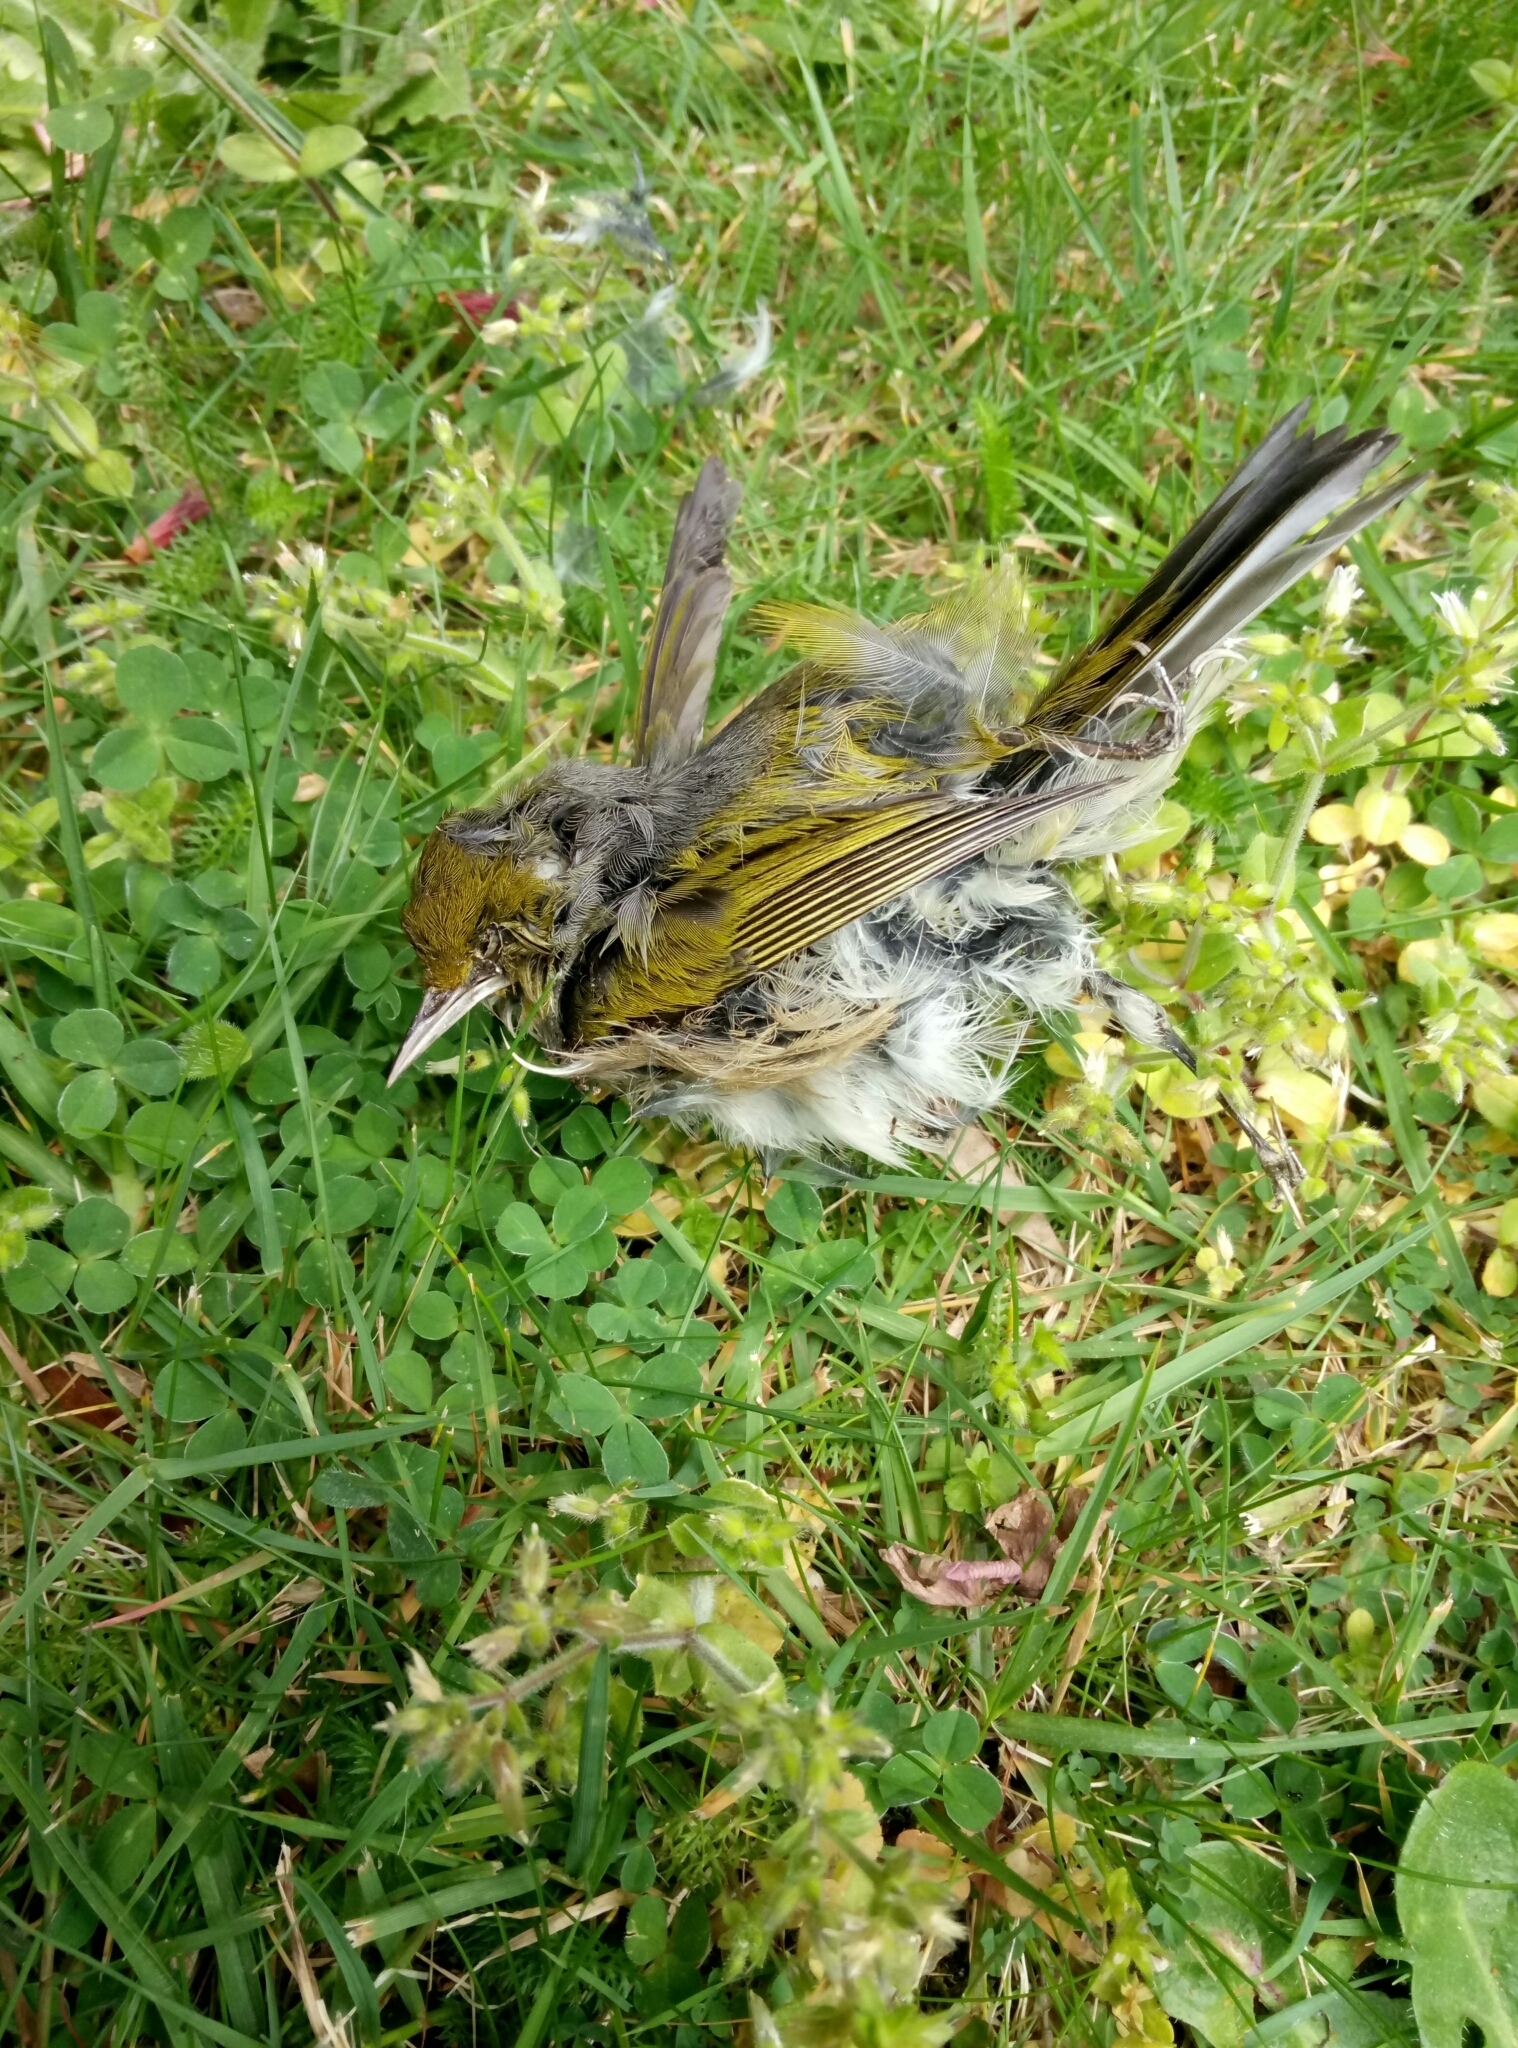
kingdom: Animalia
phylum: Chordata
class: Aves
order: Passeriformes
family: Zosteropidae
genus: Zosterops
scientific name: Zosterops lateralis
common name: Silvereye
